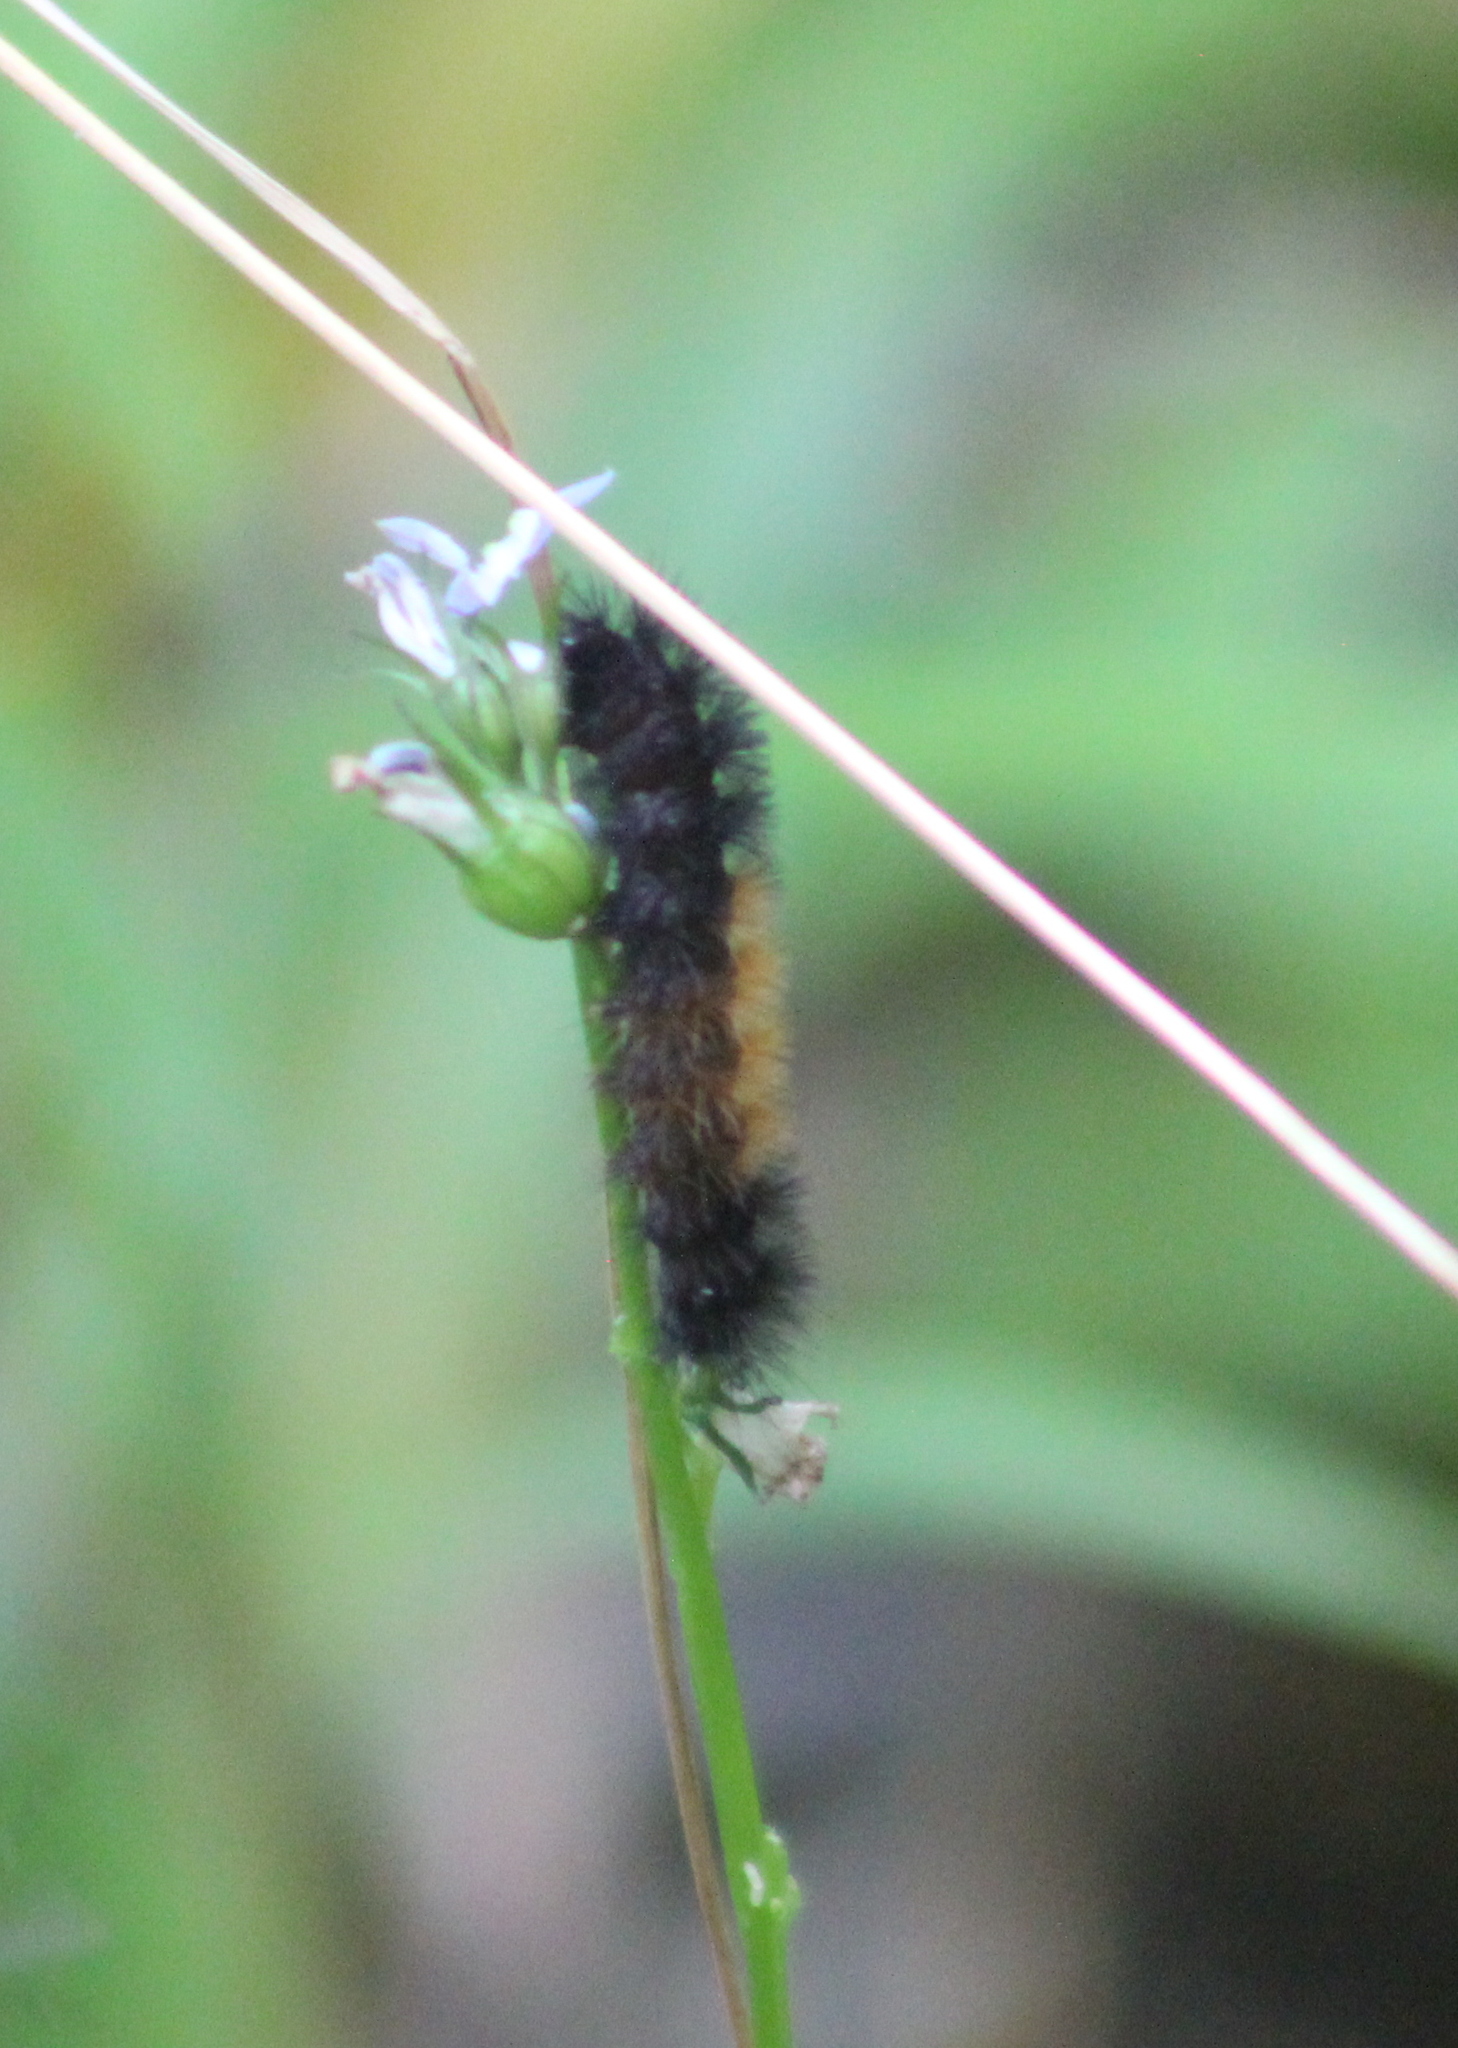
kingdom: Animalia
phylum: Arthropoda
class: Insecta
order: Lepidoptera
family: Erebidae
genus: Pyrrharctia
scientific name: Pyrrharctia isabella
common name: Isabella tiger moth
